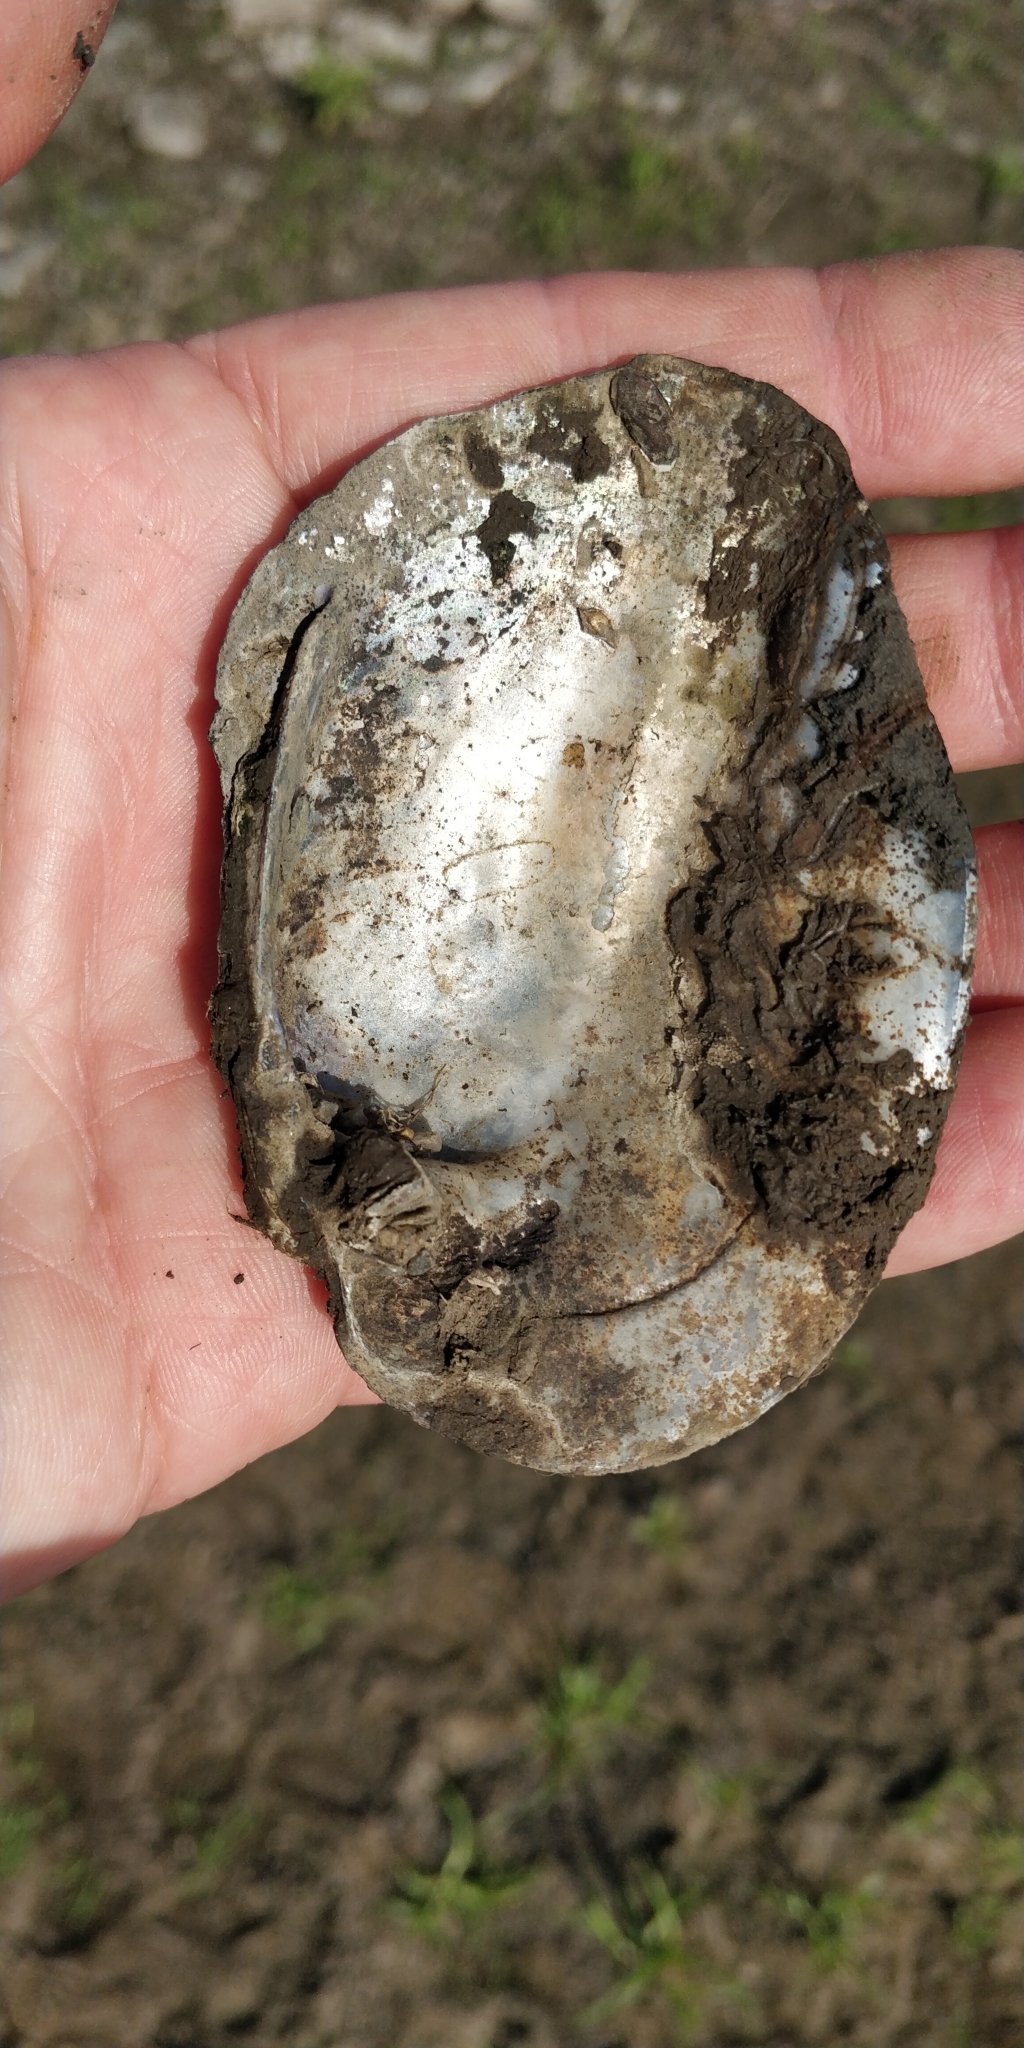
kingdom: Animalia
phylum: Mollusca
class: Bivalvia
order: Unionida
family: Unionidae
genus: Amblema
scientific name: Amblema plicata
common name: Threeridge
